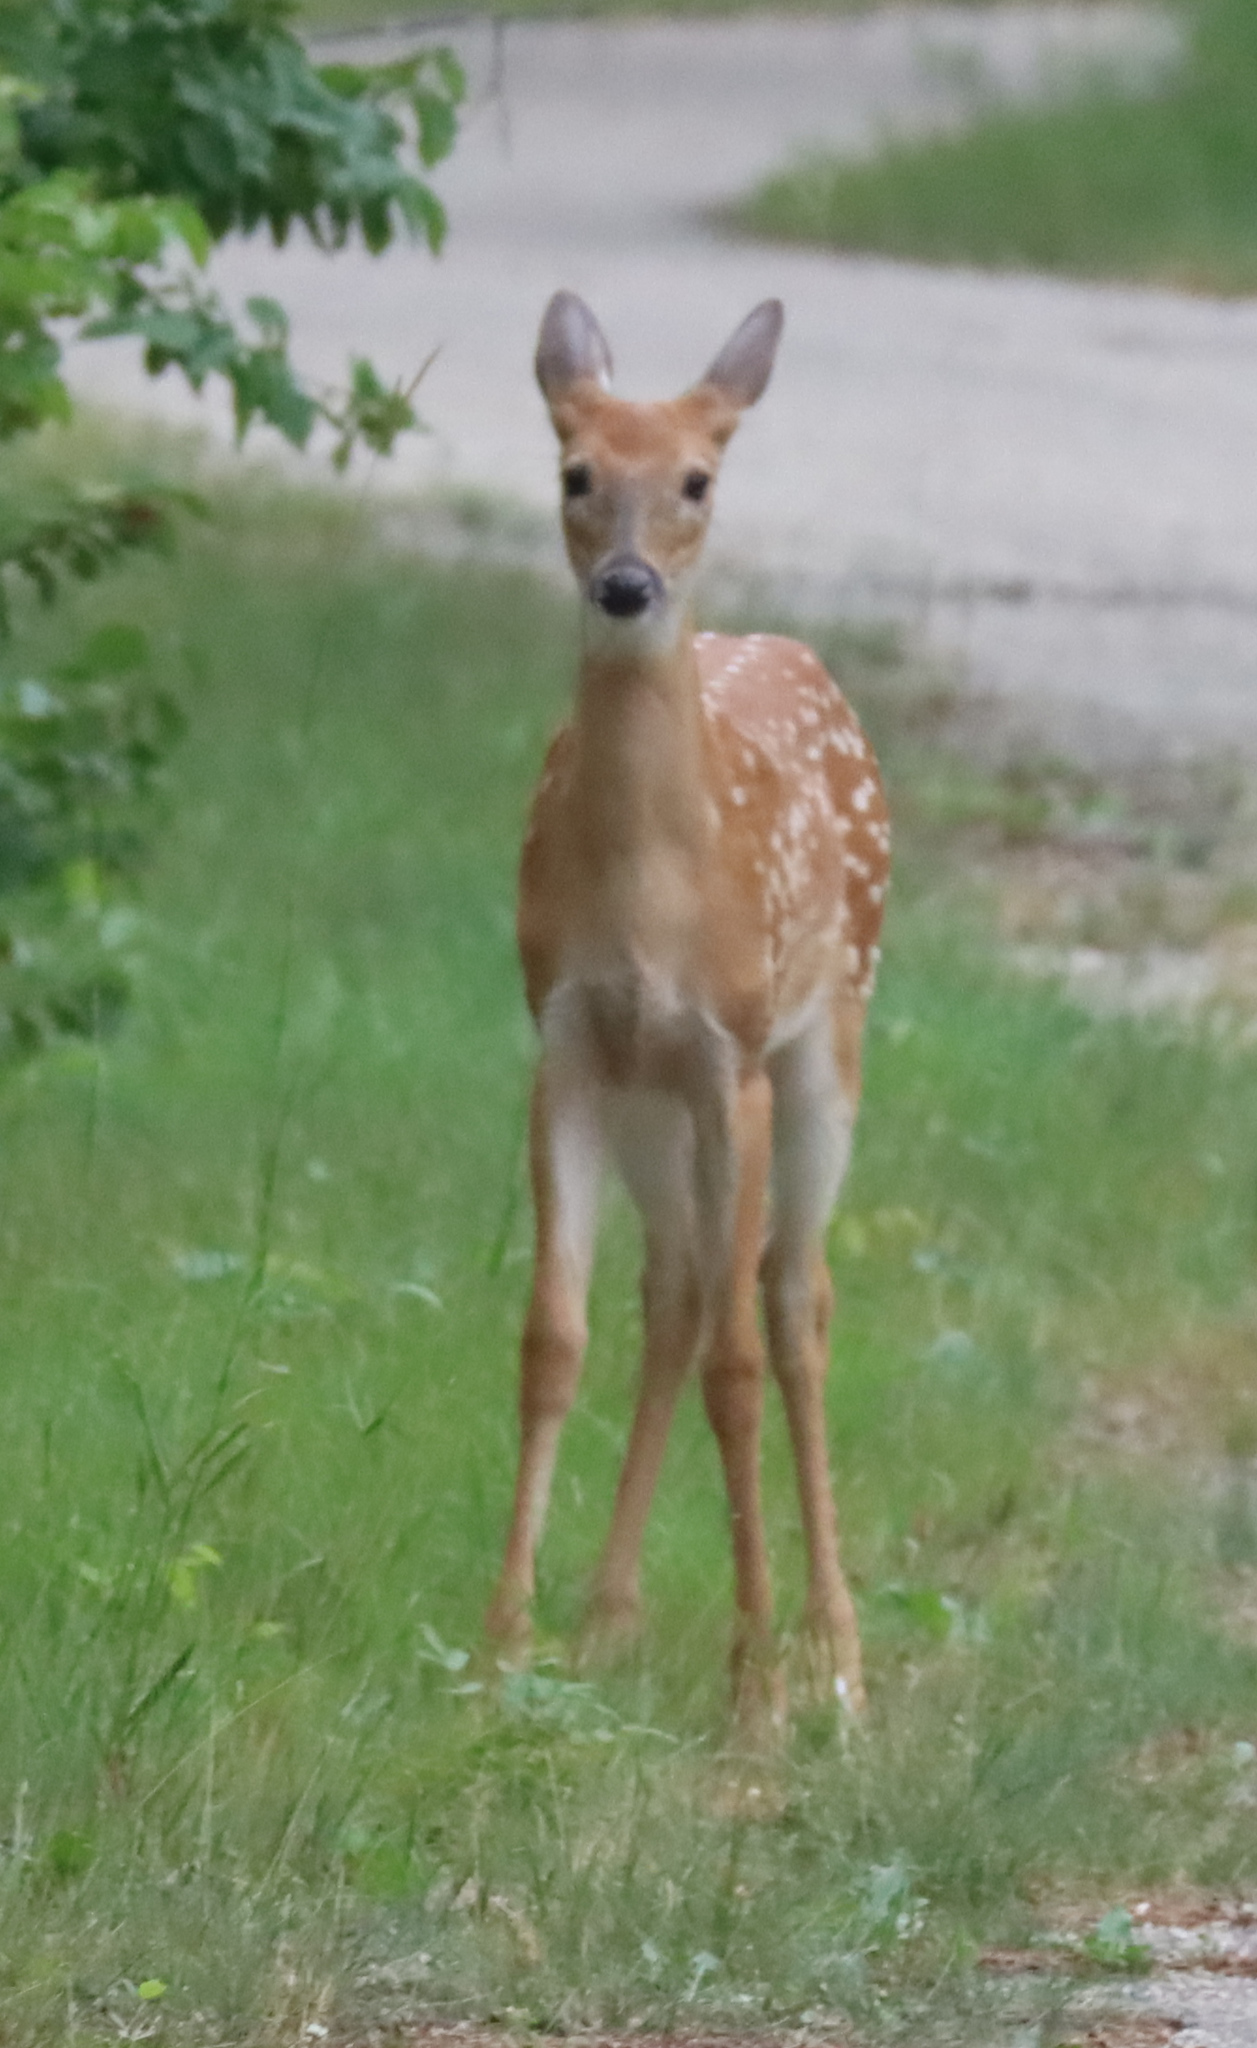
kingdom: Animalia
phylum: Chordata
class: Mammalia
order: Artiodactyla
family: Cervidae
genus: Odocoileus
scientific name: Odocoileus virginianus
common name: White-tailed deer
